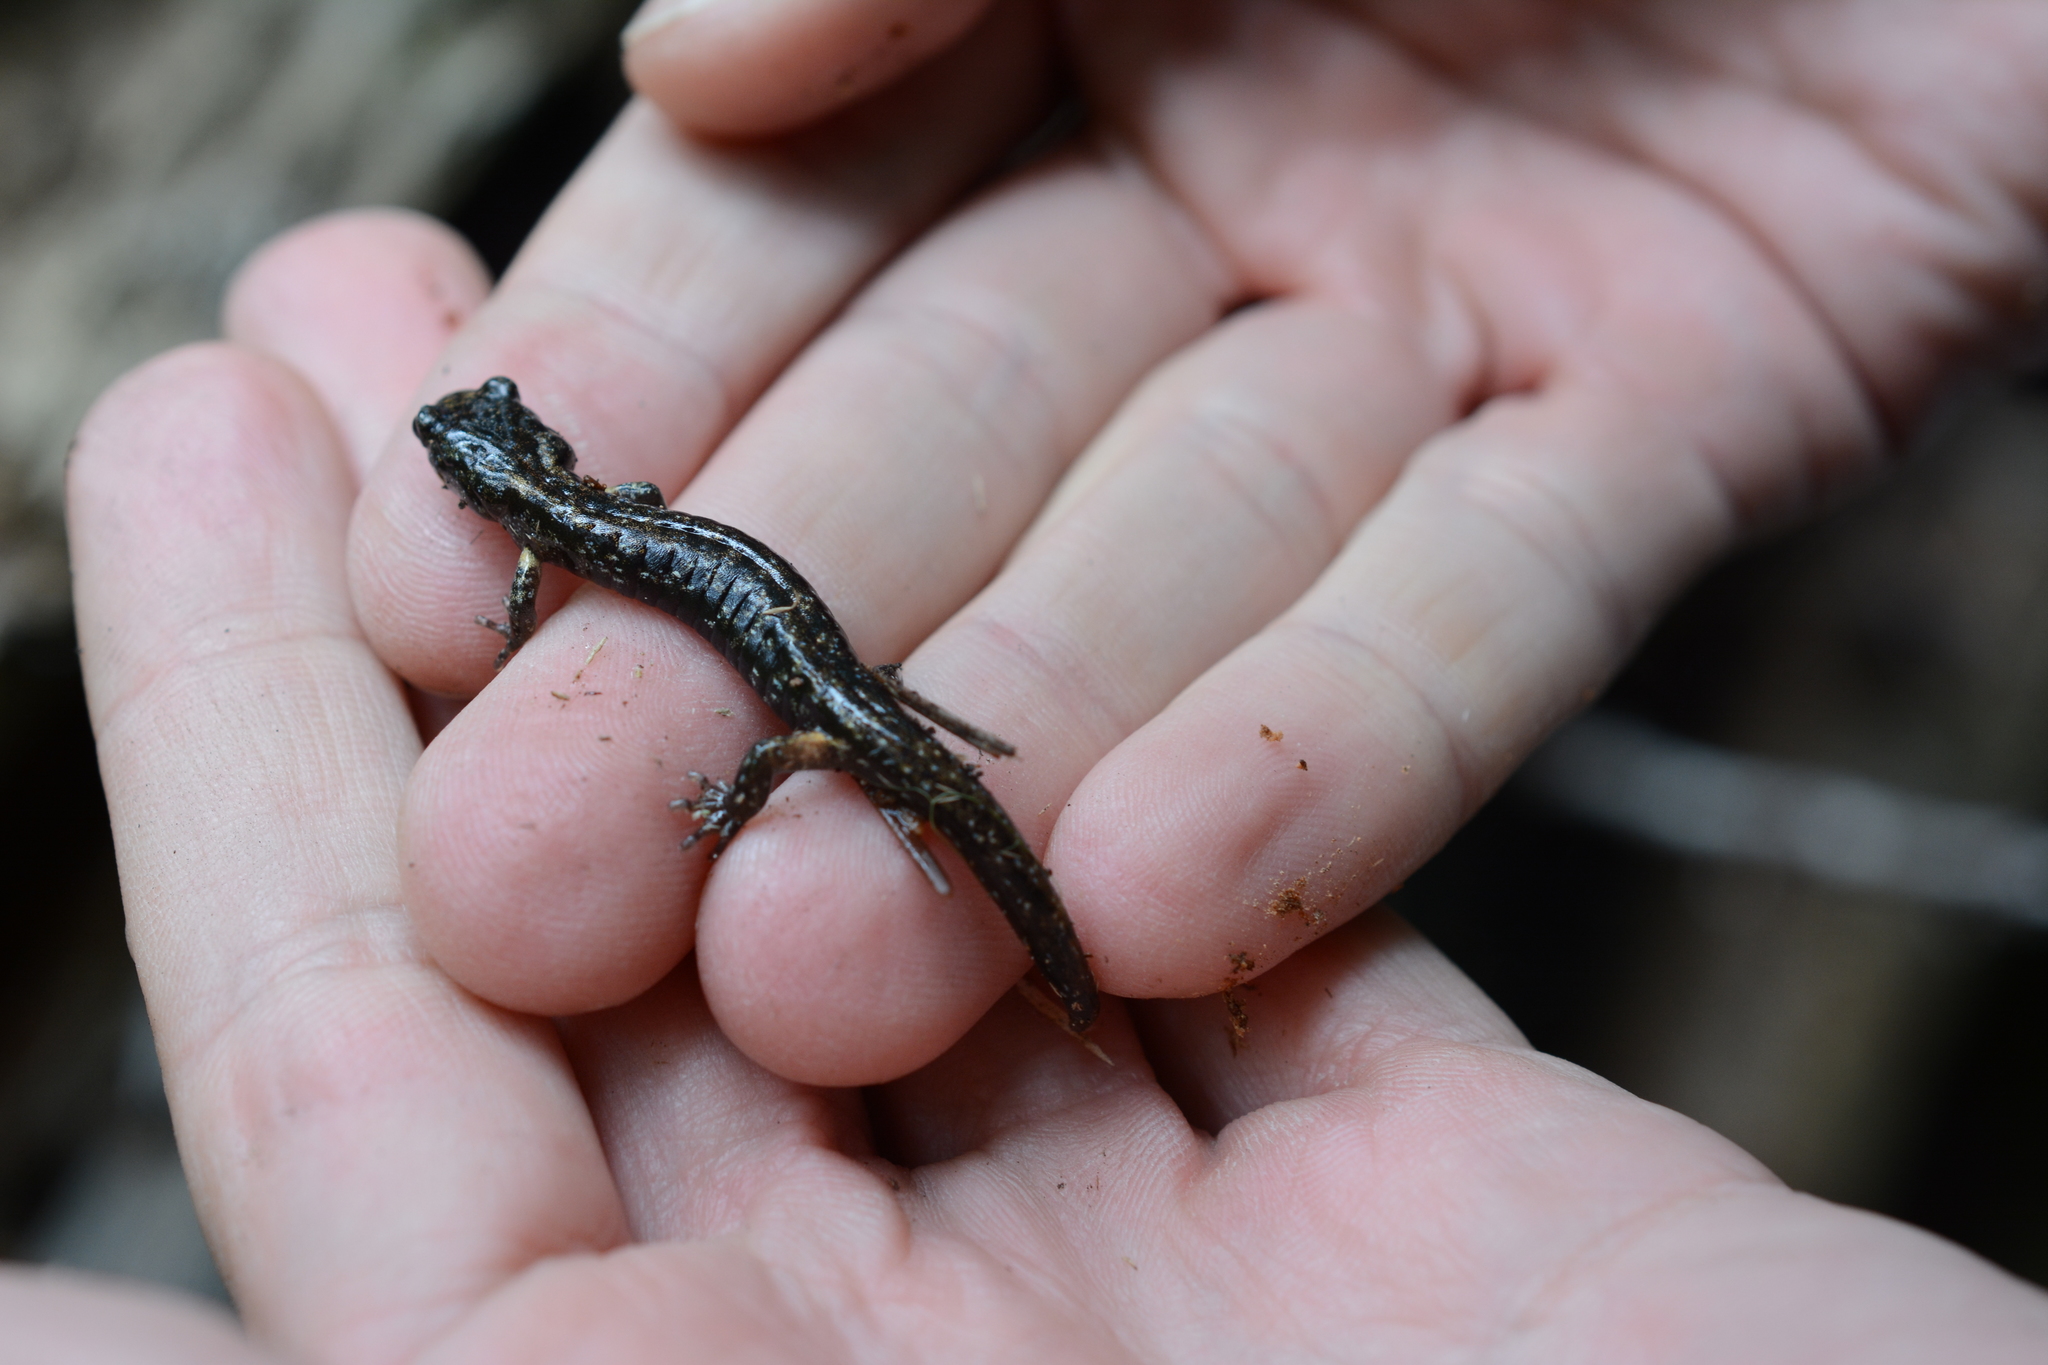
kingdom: Animalia
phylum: Chordata
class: Amphibia
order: Caudata
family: Plethodontidae
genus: Aneides
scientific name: Aneides vagrans
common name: Wandering salamander
